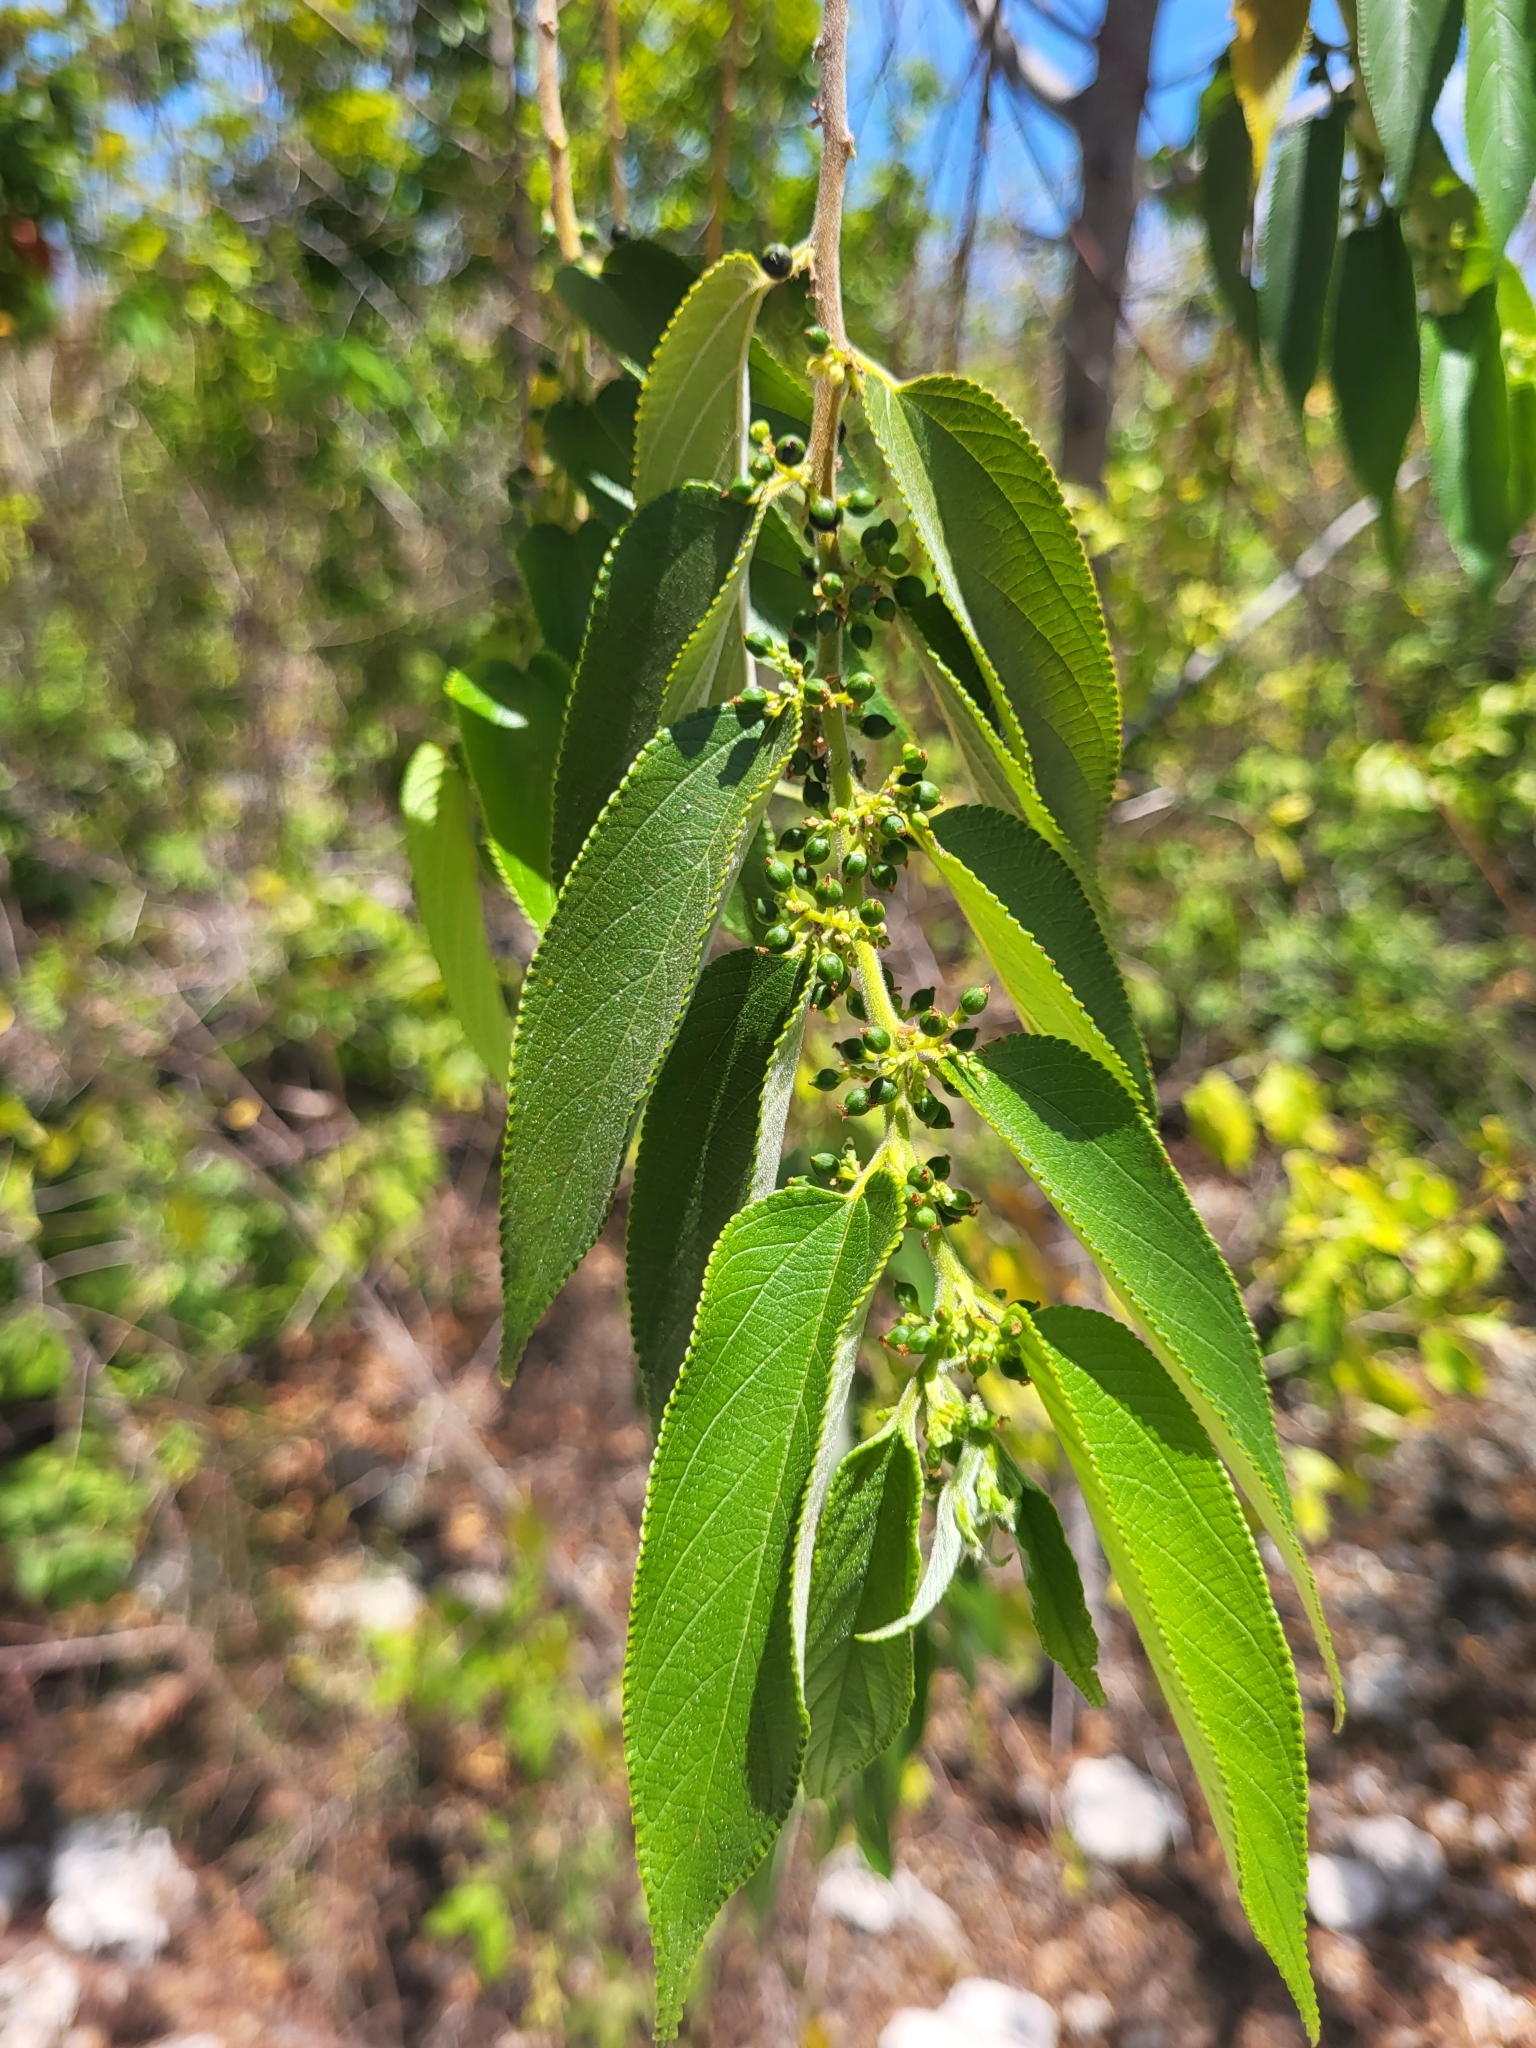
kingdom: Plantae
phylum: Tracheophyta
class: Magnoliopsida
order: Rosales
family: Cannabaceae
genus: Trema
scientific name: Trema orientale
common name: Indian charcoal tree
